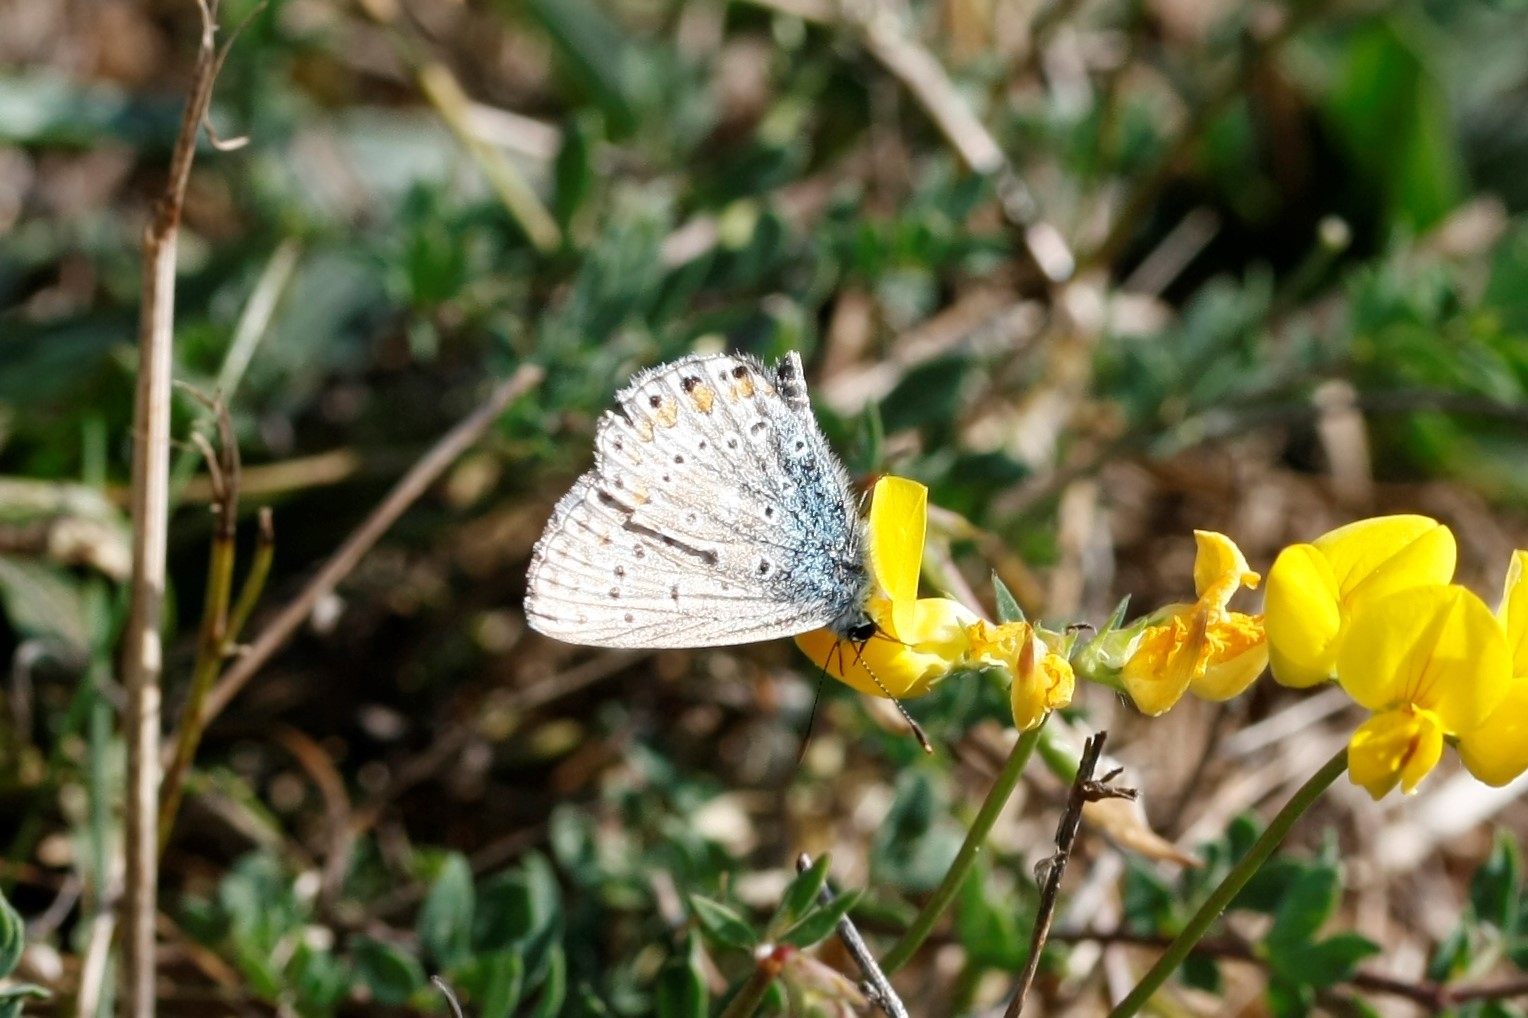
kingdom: Animalia
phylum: Arthropoda
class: Insecta
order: Lepidoptera
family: Lycaenidae
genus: Polyommatus
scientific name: Polyommatus icarus
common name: Common blue
